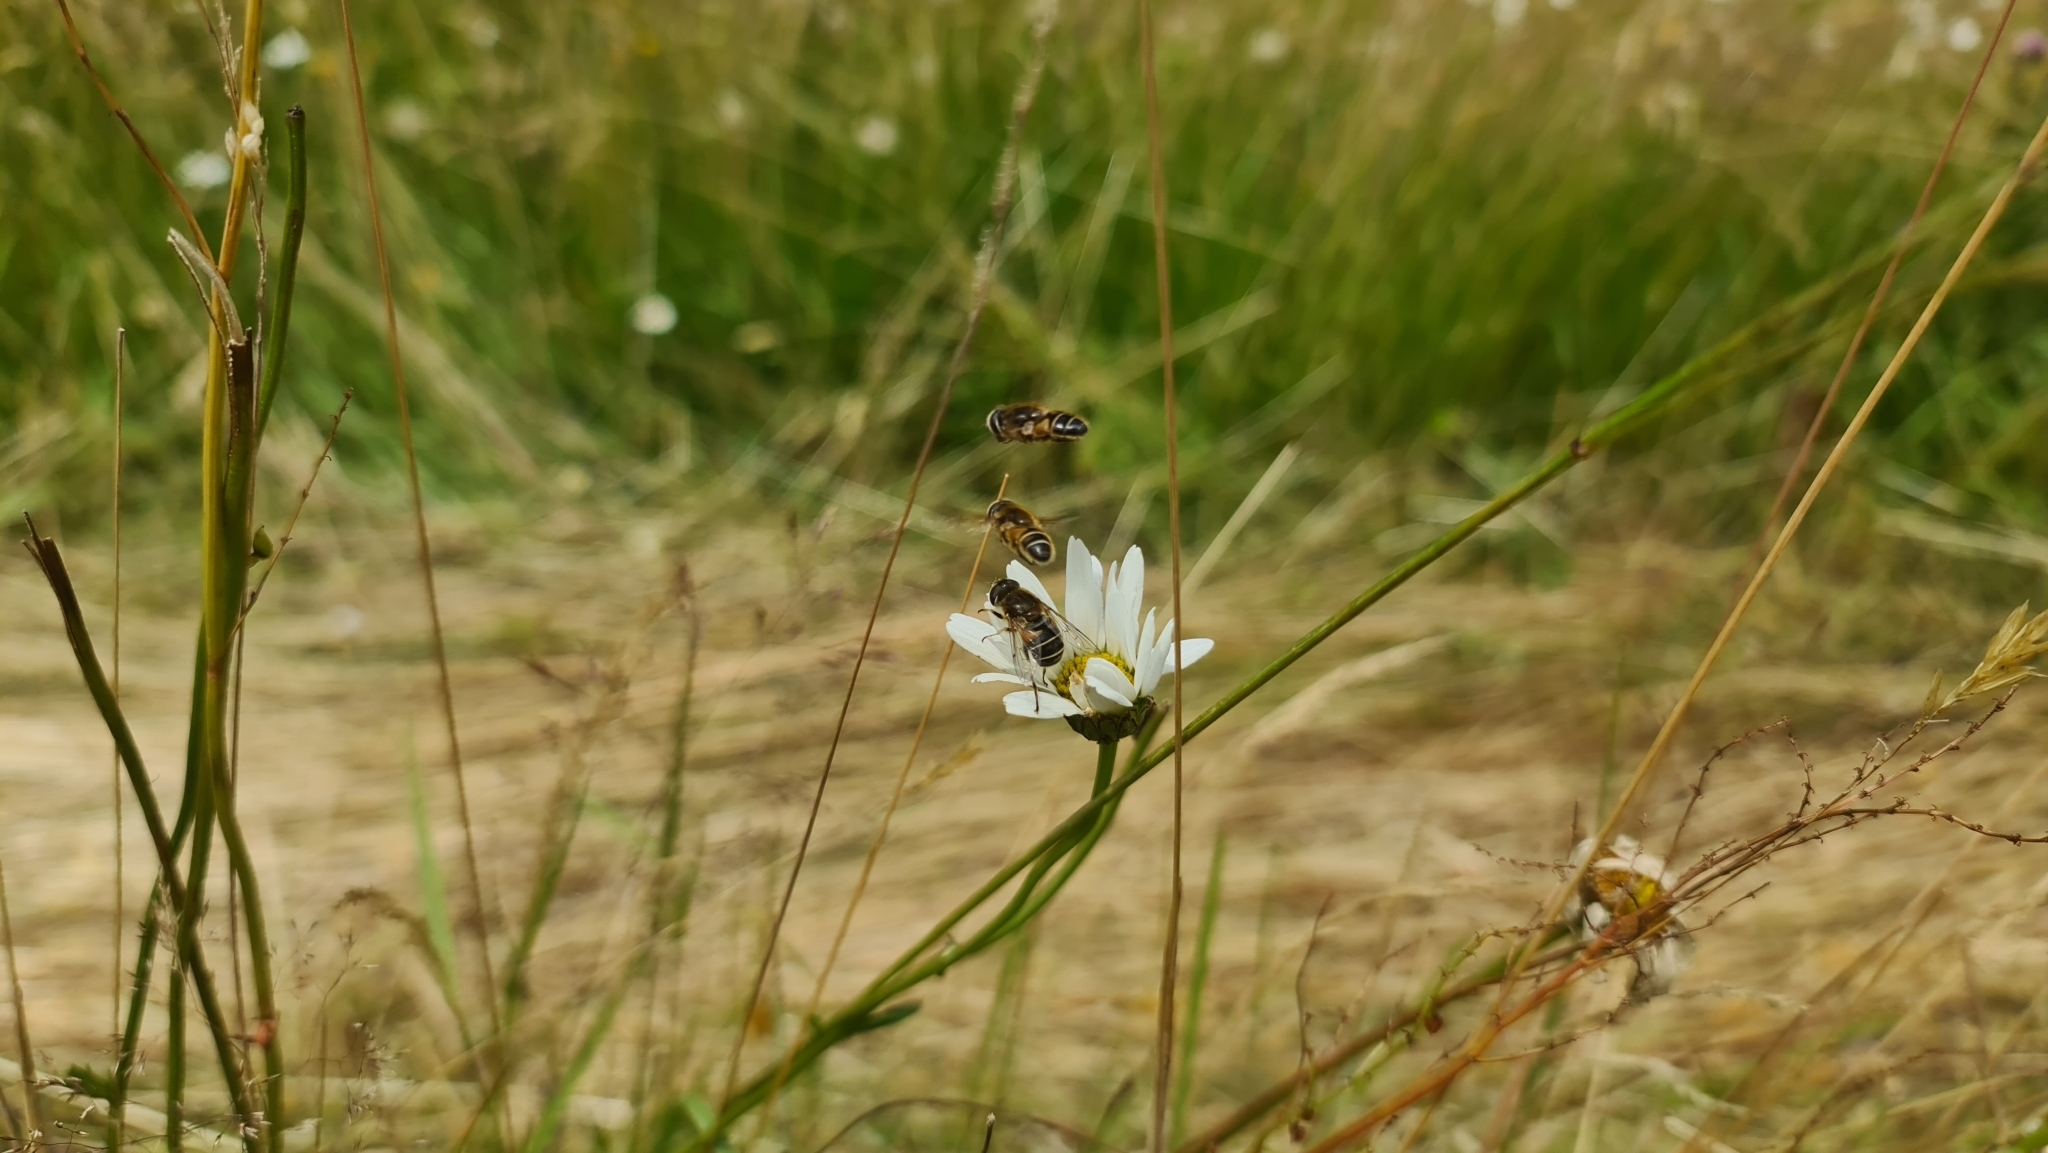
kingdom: Animalia
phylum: Arthropoda
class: Insecta
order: Diptera
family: Syrphidae
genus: Eristalis
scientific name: Eristalis nemorum
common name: Orange-spined drone fly
